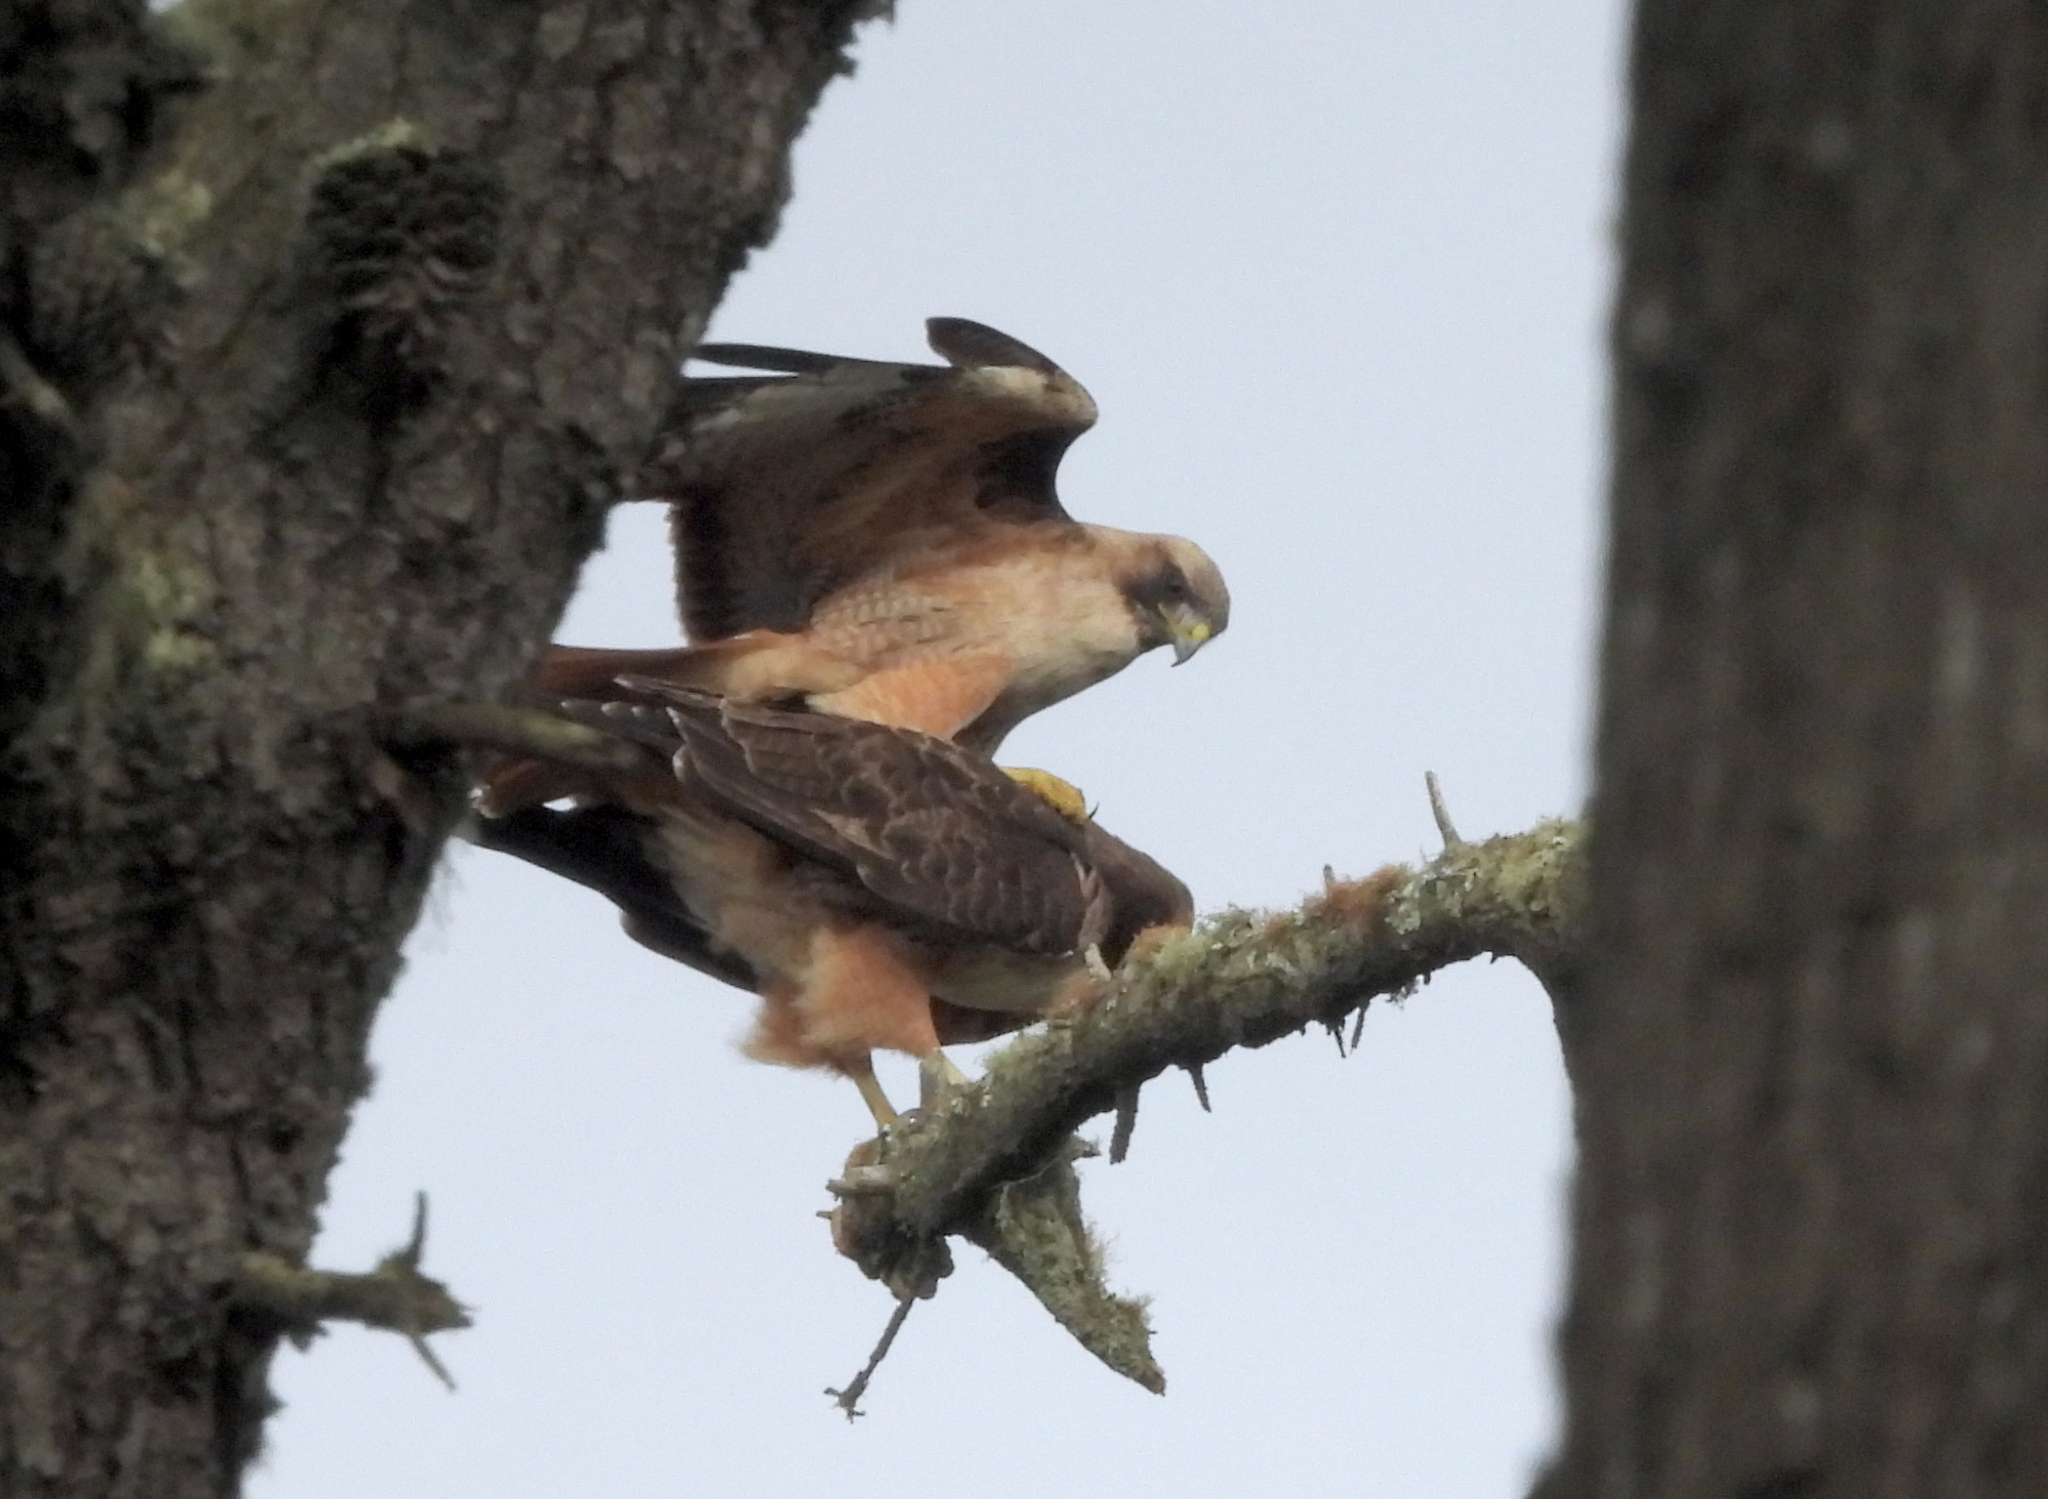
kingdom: Animalia
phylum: Chordata
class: Aves
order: Accipitriformes
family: Accipitridae
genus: Buteo
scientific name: Buteo jamaicensis
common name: Red-tailed hawk
